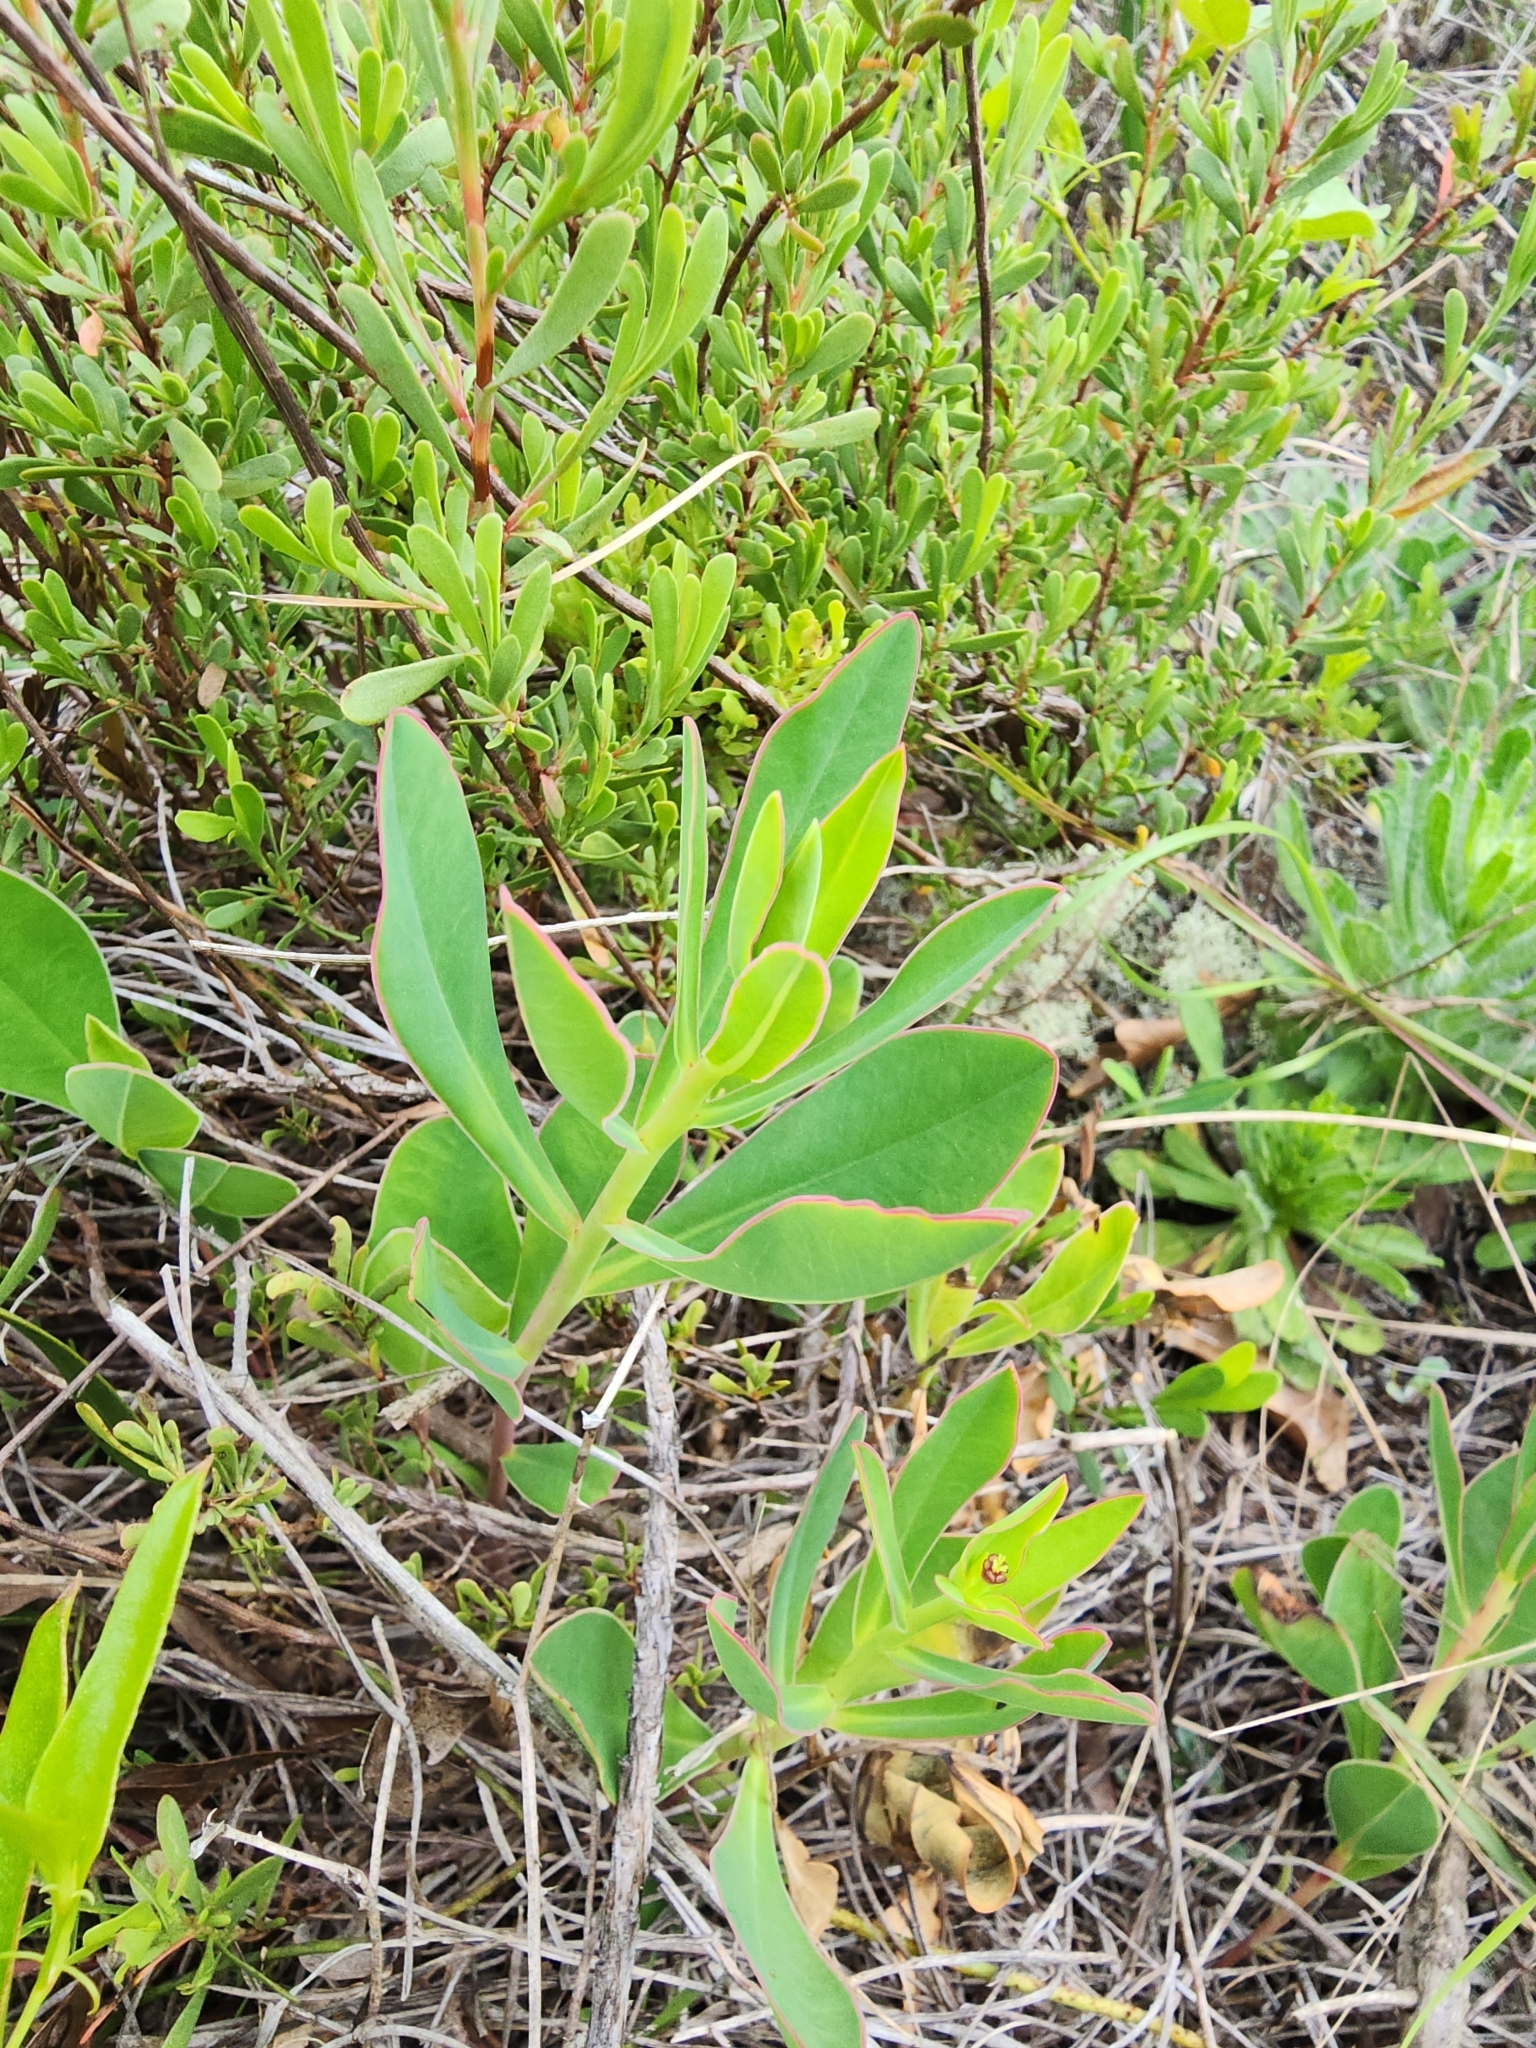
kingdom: Plantae
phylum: Tracheophyta
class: Magnoliopsida
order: Malpighiales
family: Euphorbiaceae
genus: Euphorbia
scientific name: Euphorbia telephioides
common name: Telephus spurge
